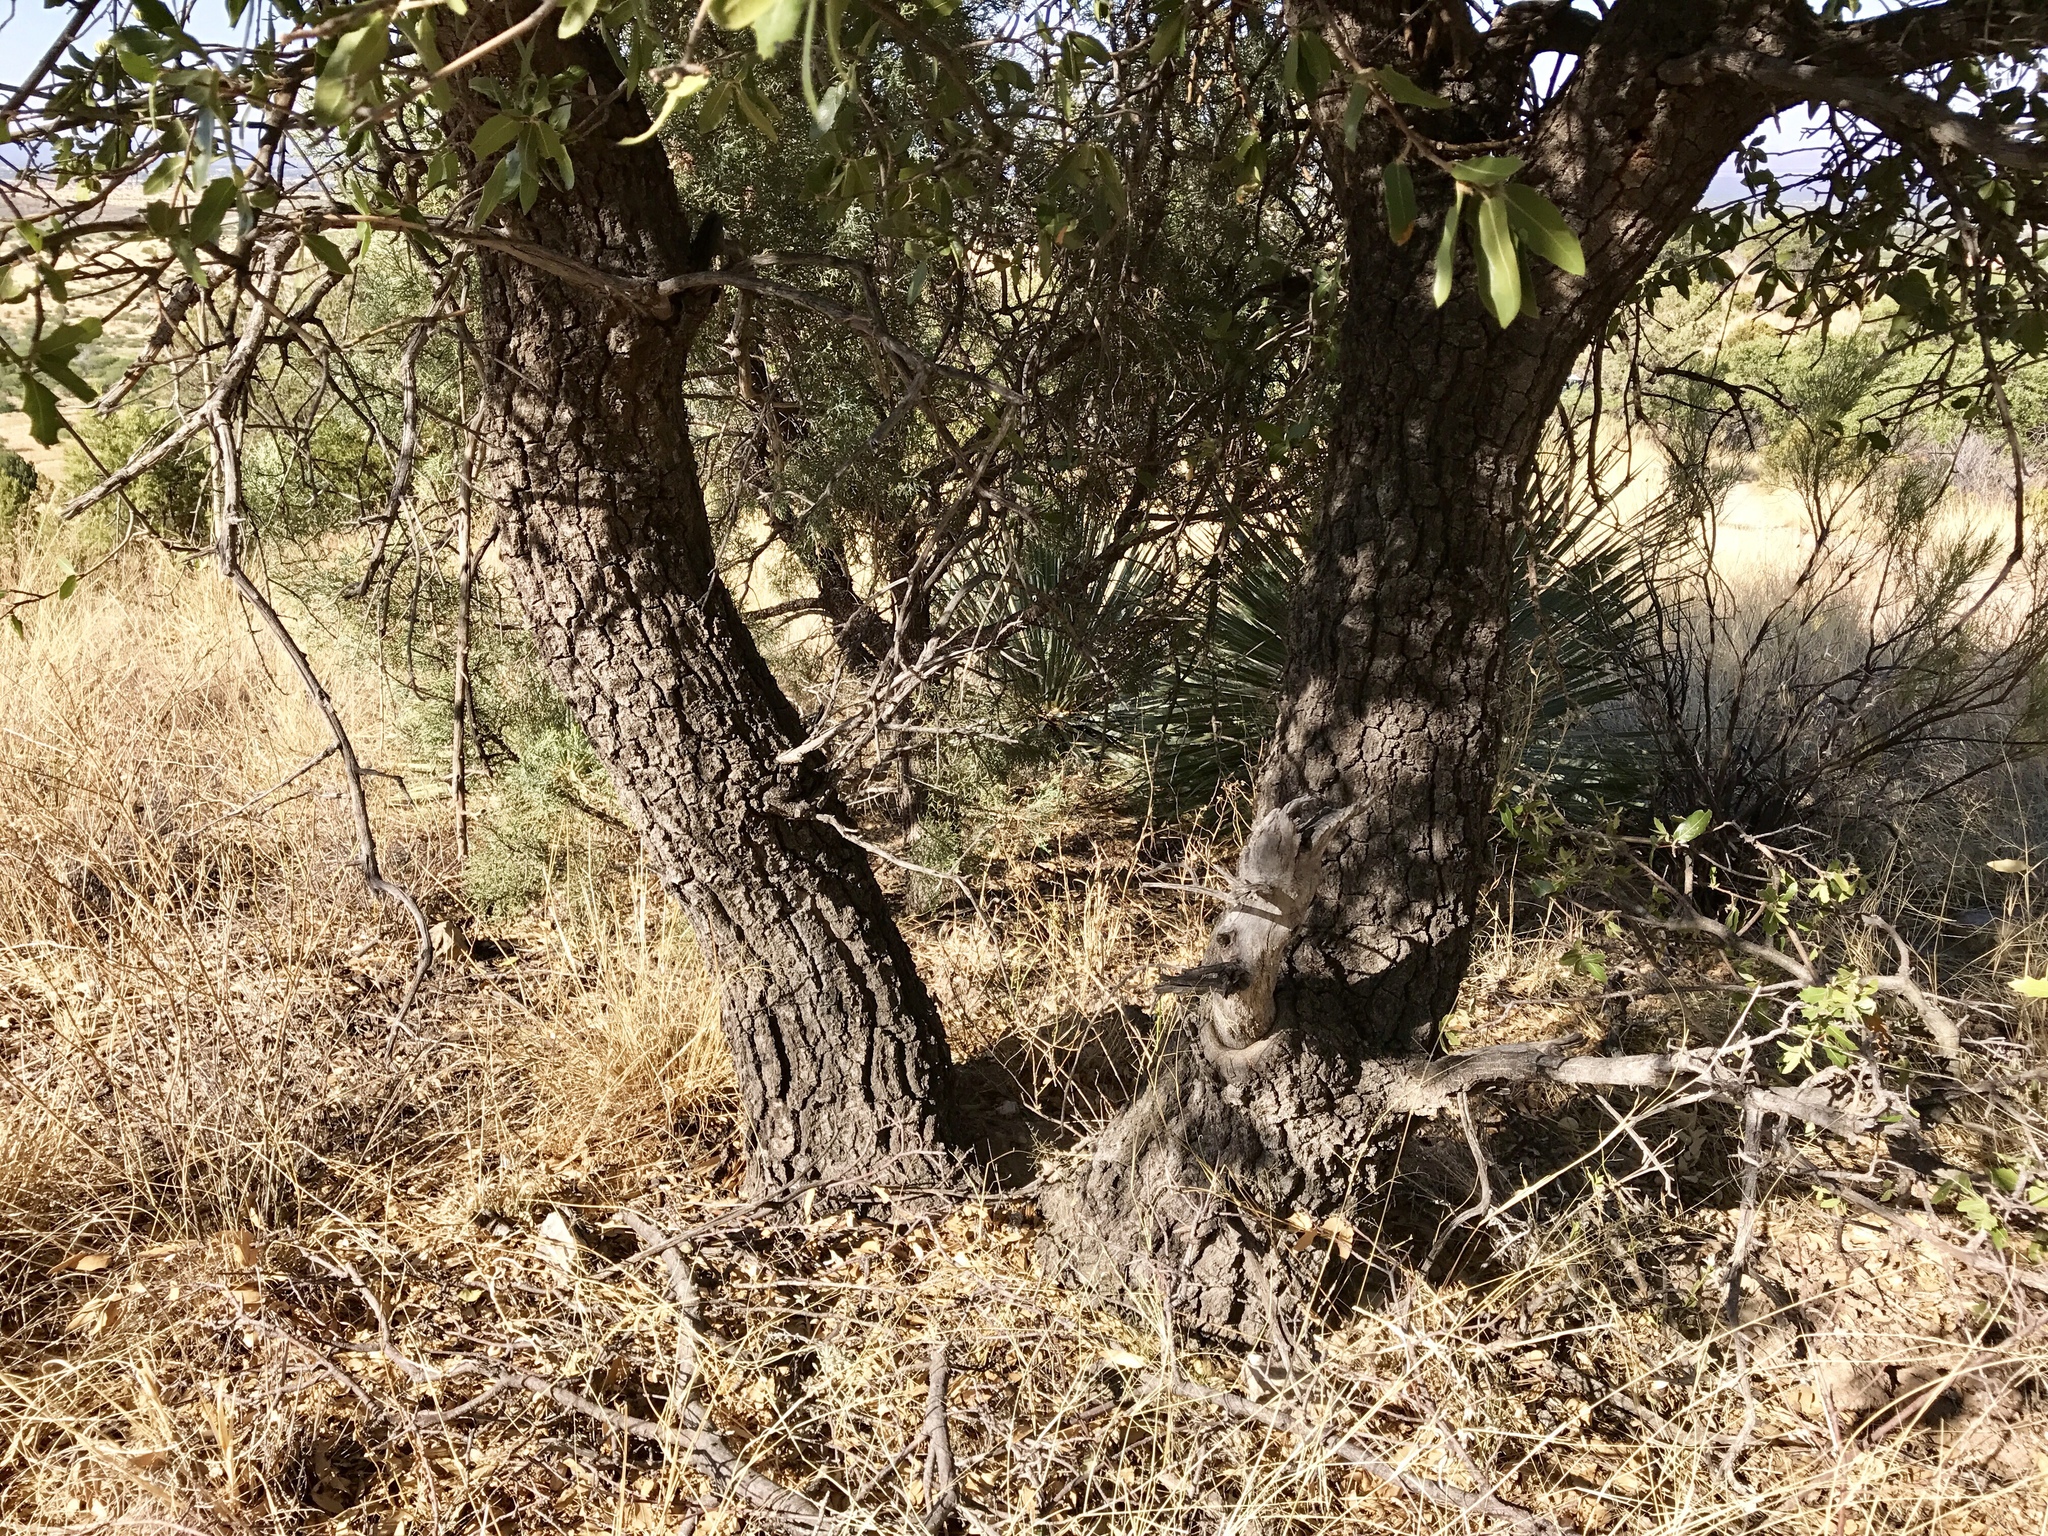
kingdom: Plantae
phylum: Tracheophyta
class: Magnoliopsida
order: Fagales
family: Fagaceae
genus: Quercus
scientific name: Quercus emoryi
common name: Emory oak
